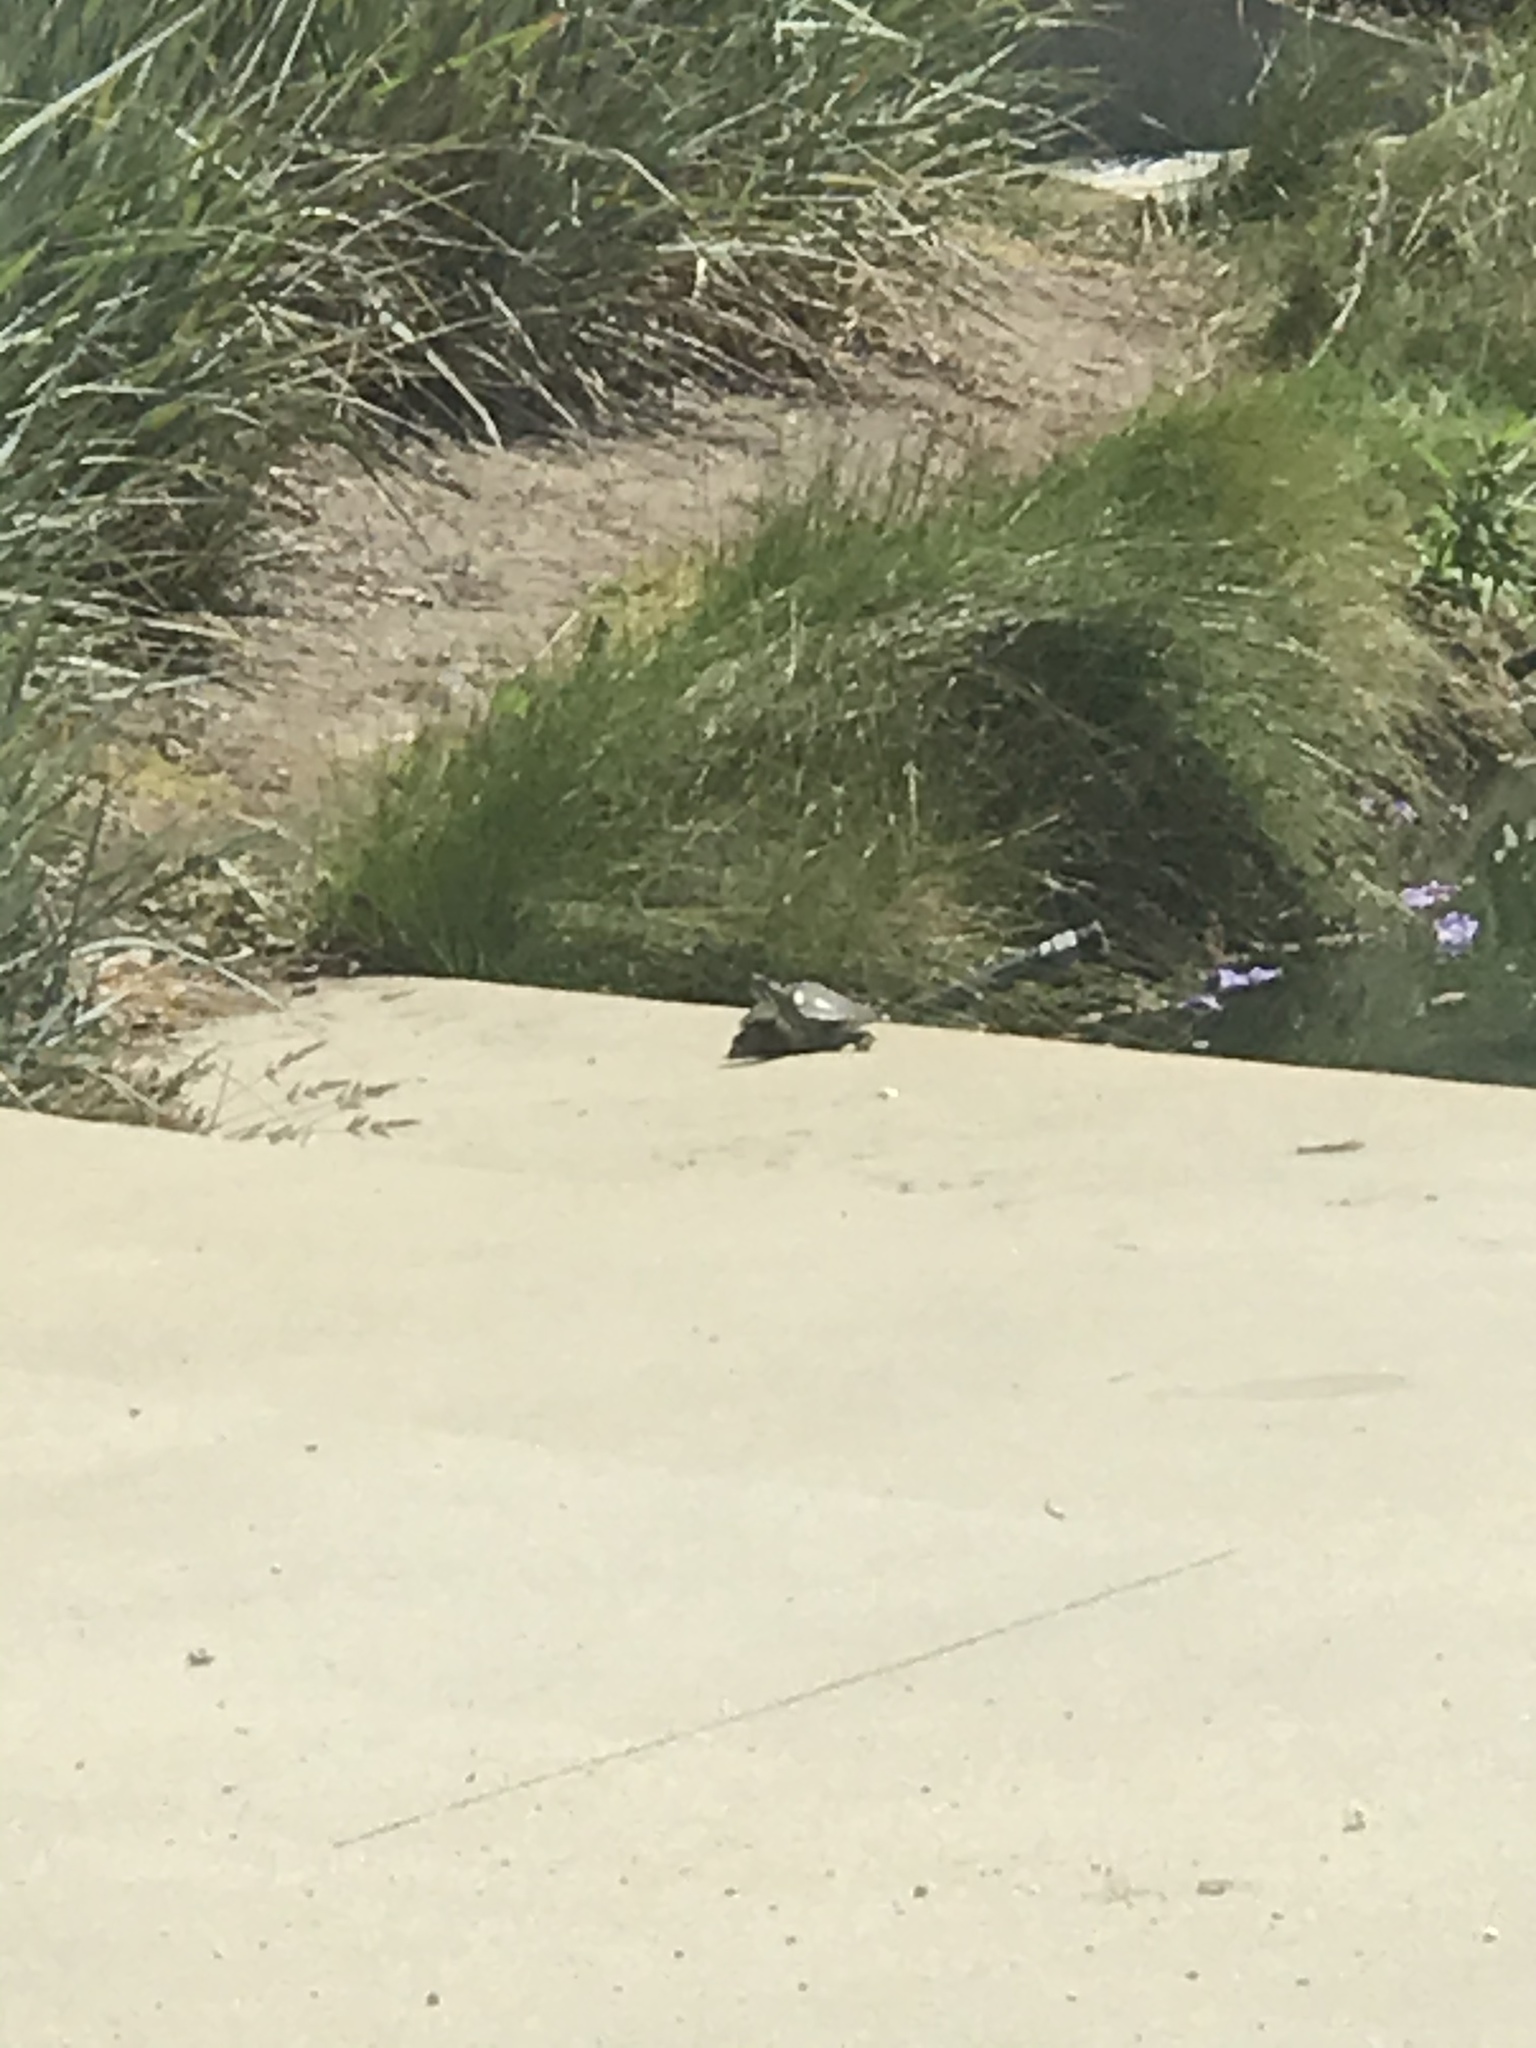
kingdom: Animalia
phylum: Chordata
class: Testudines
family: Emydidae
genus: Trachemys
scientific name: Trachemys scripta
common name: Slider
